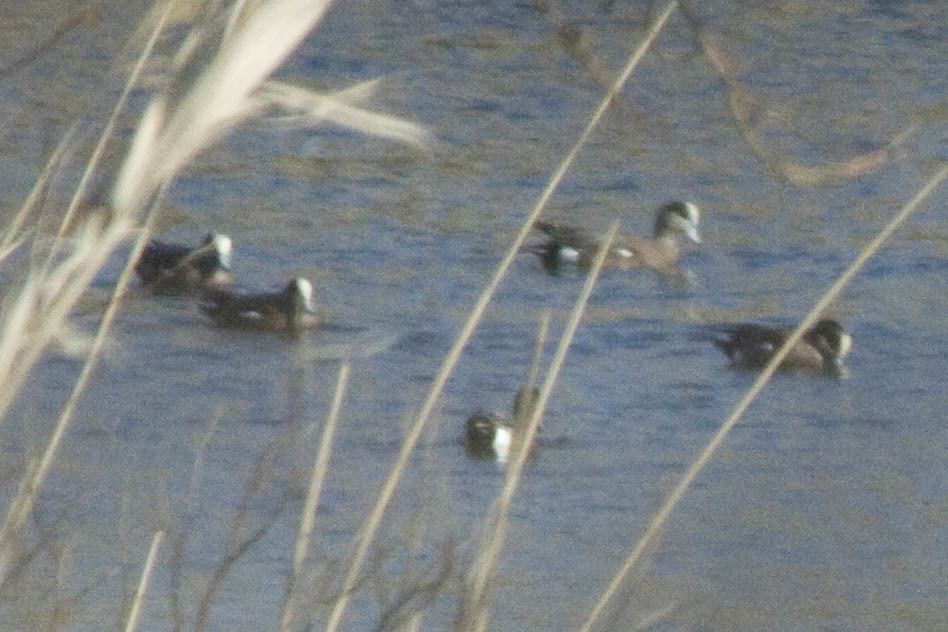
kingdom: Animalia
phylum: Chordata
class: Aves
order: Anseriformes
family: Anatidae
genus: Mareca
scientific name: Mareca americana
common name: American wigeon
